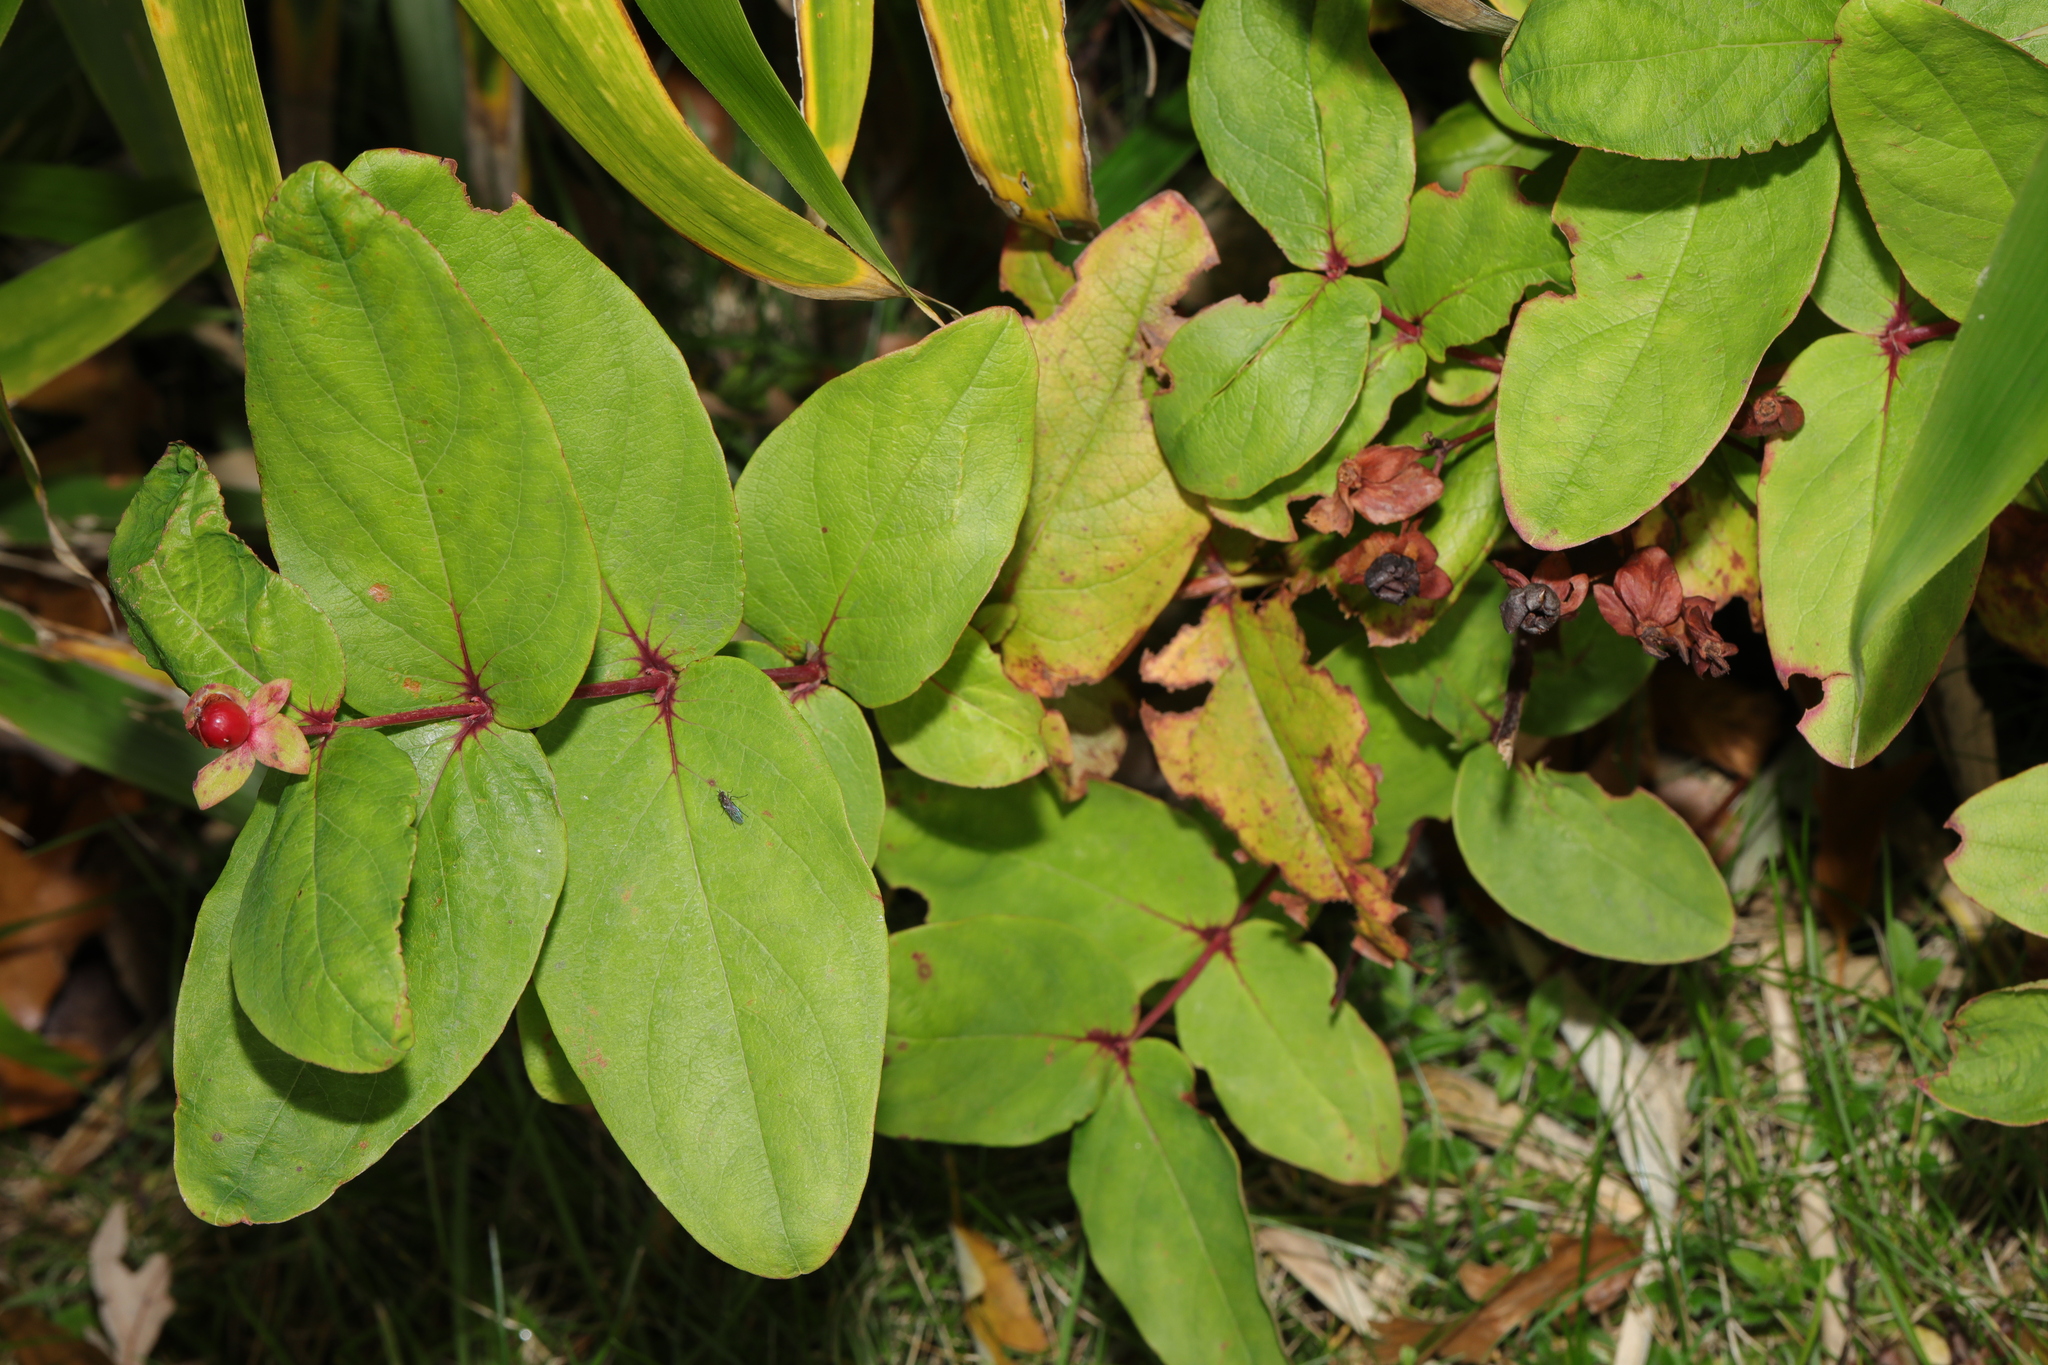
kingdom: Plantae
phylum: Tracheophyta
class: Magnoliopsida
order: Malpighiales
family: Hypericaceae
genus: Hypericum
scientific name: Hypericum androsaemum
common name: Sweet-amber
